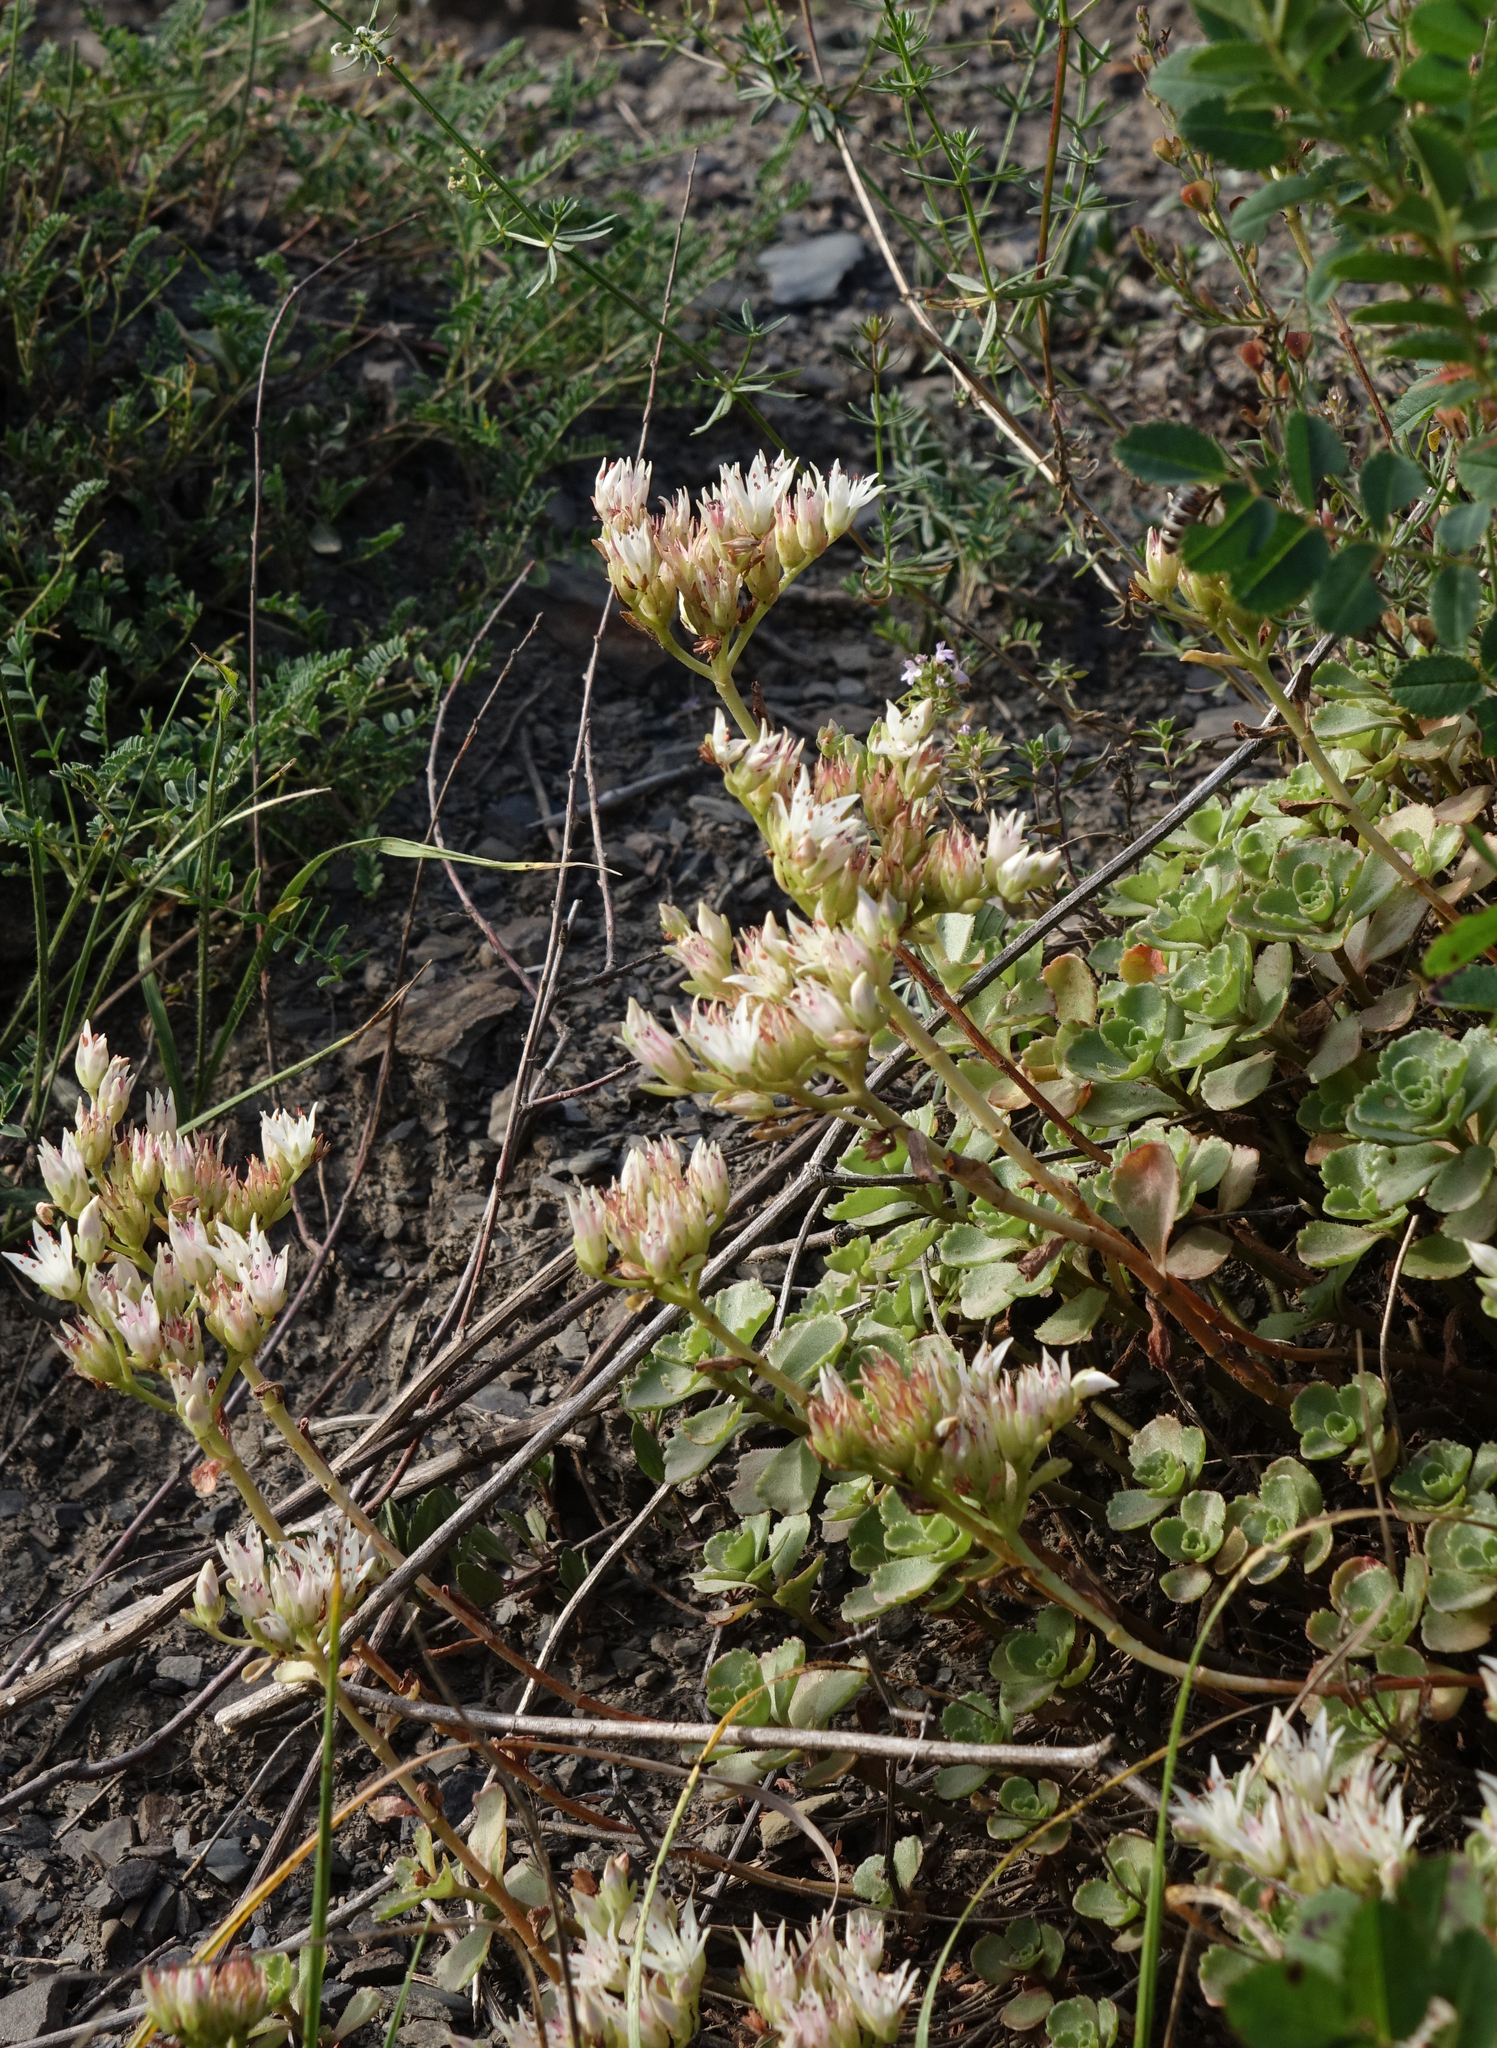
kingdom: Plantae
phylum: Tracheophyta
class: Magnoliopsida
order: Saxifragales
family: Crassulaceae
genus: Phedimus
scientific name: Phedimus spurius
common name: Caucasian stonecrop
